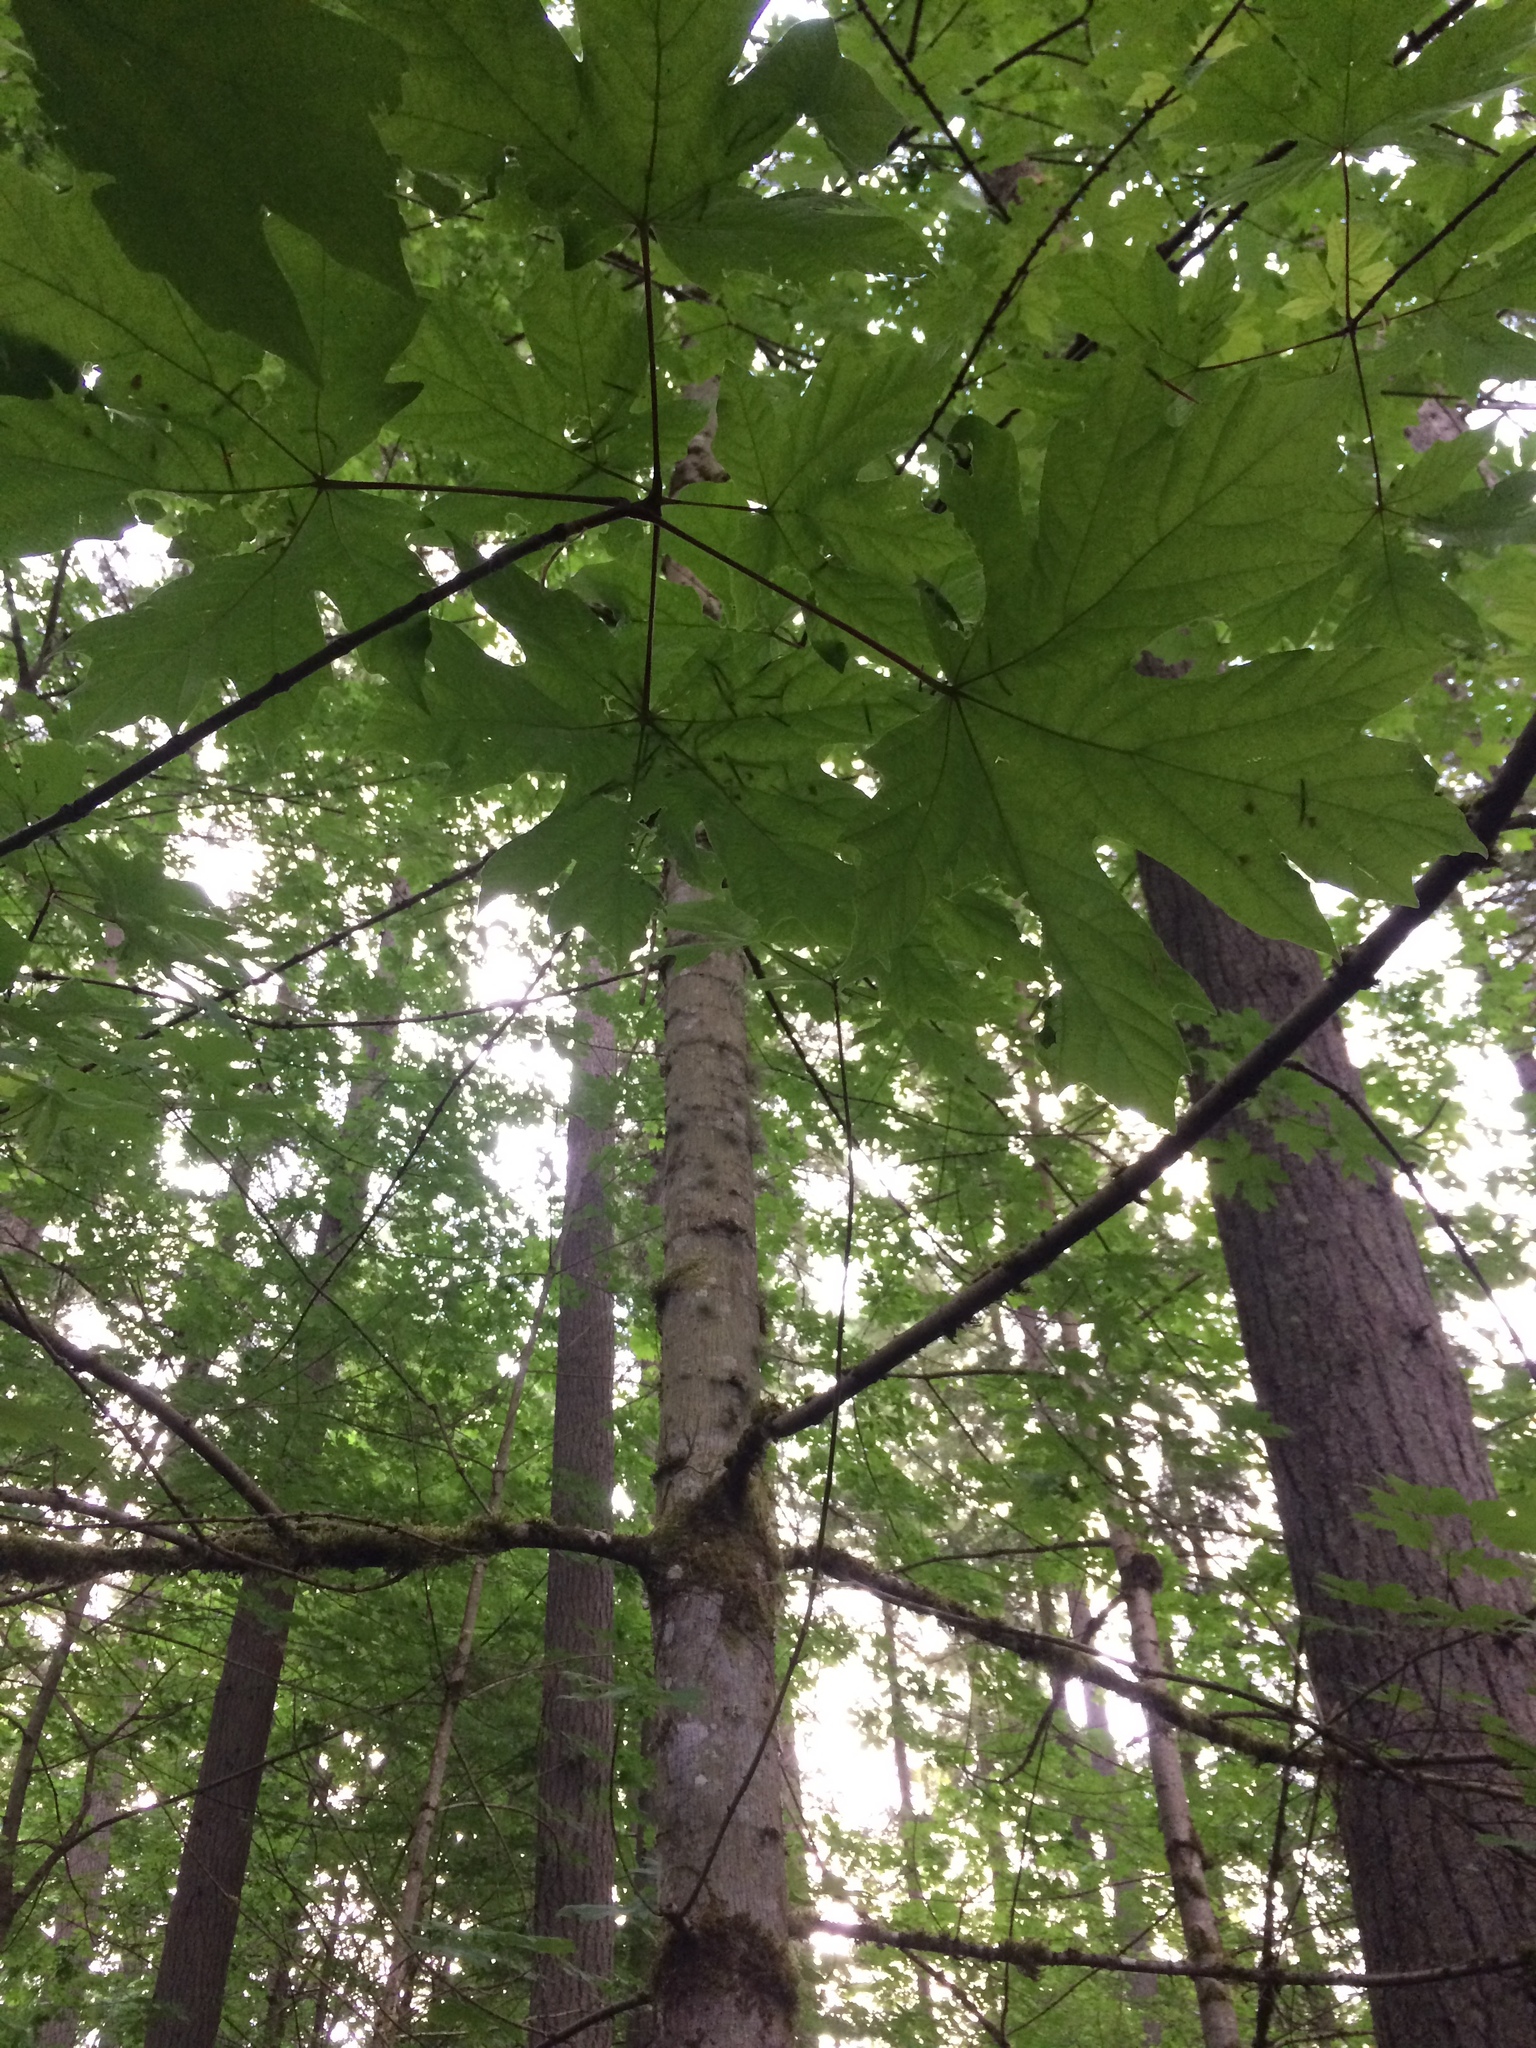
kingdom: Plantae
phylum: Tracheophyta
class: Magnoliopsida
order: Sapindales
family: Sapindaceae
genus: Acer
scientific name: Acer macrophyllum
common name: Oregon maple
